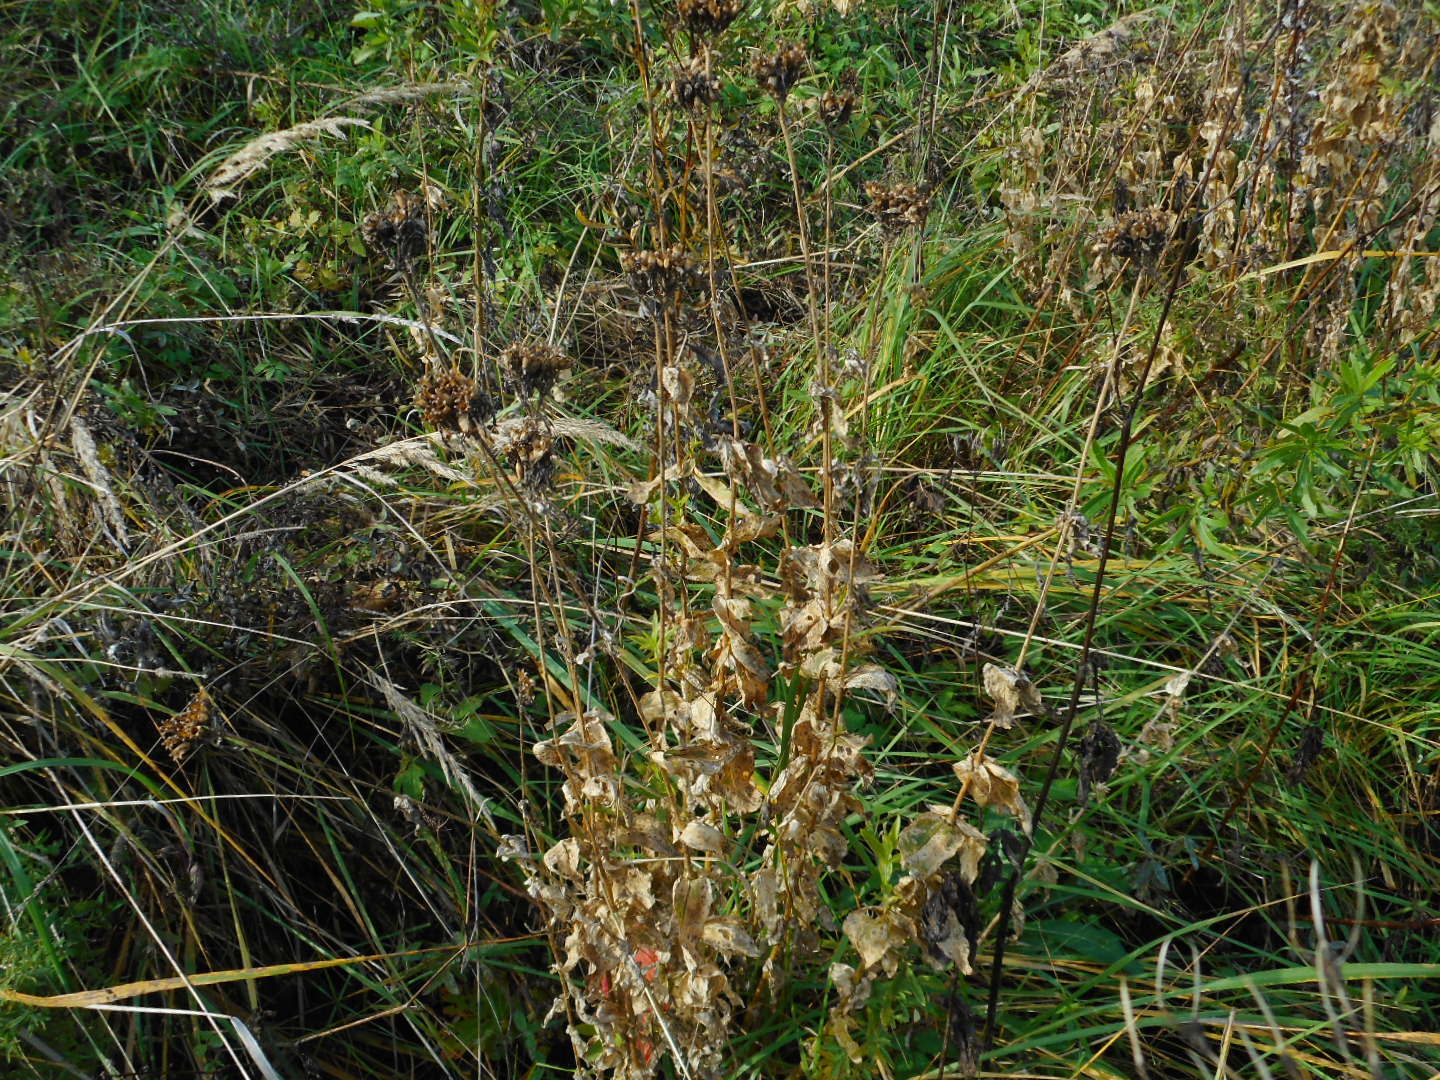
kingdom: Plantae
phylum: Tracheophyta
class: Magnoliopsida
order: Caryophyllales
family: Caryophyllaceae
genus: Silene
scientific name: Silene chalcedonica
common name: Maltese-cross
